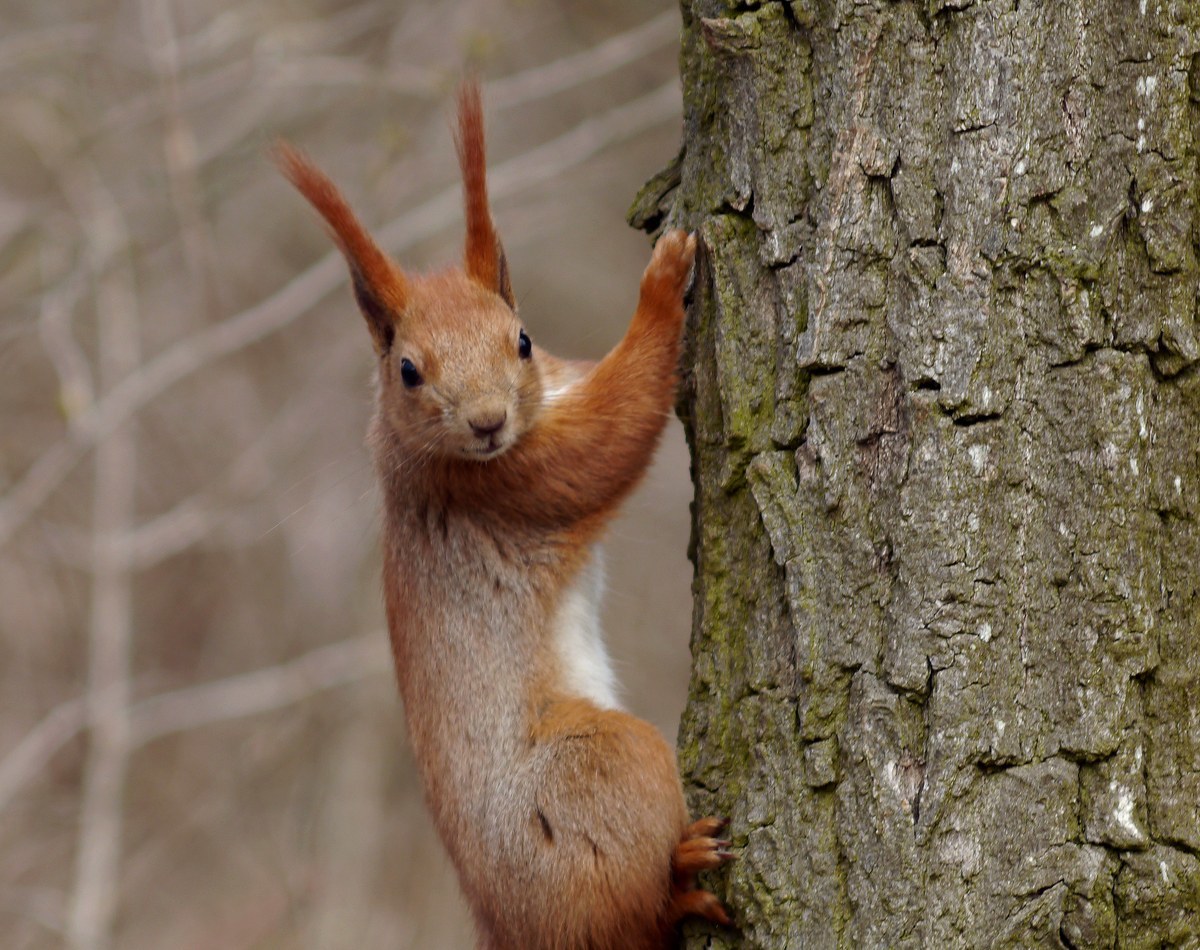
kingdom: Animalia
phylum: Chordata
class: Mammalia
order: Rodentia
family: Sciuridae
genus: Sciurus
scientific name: Sciurus vulgaris
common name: Eurasian red squirrel
